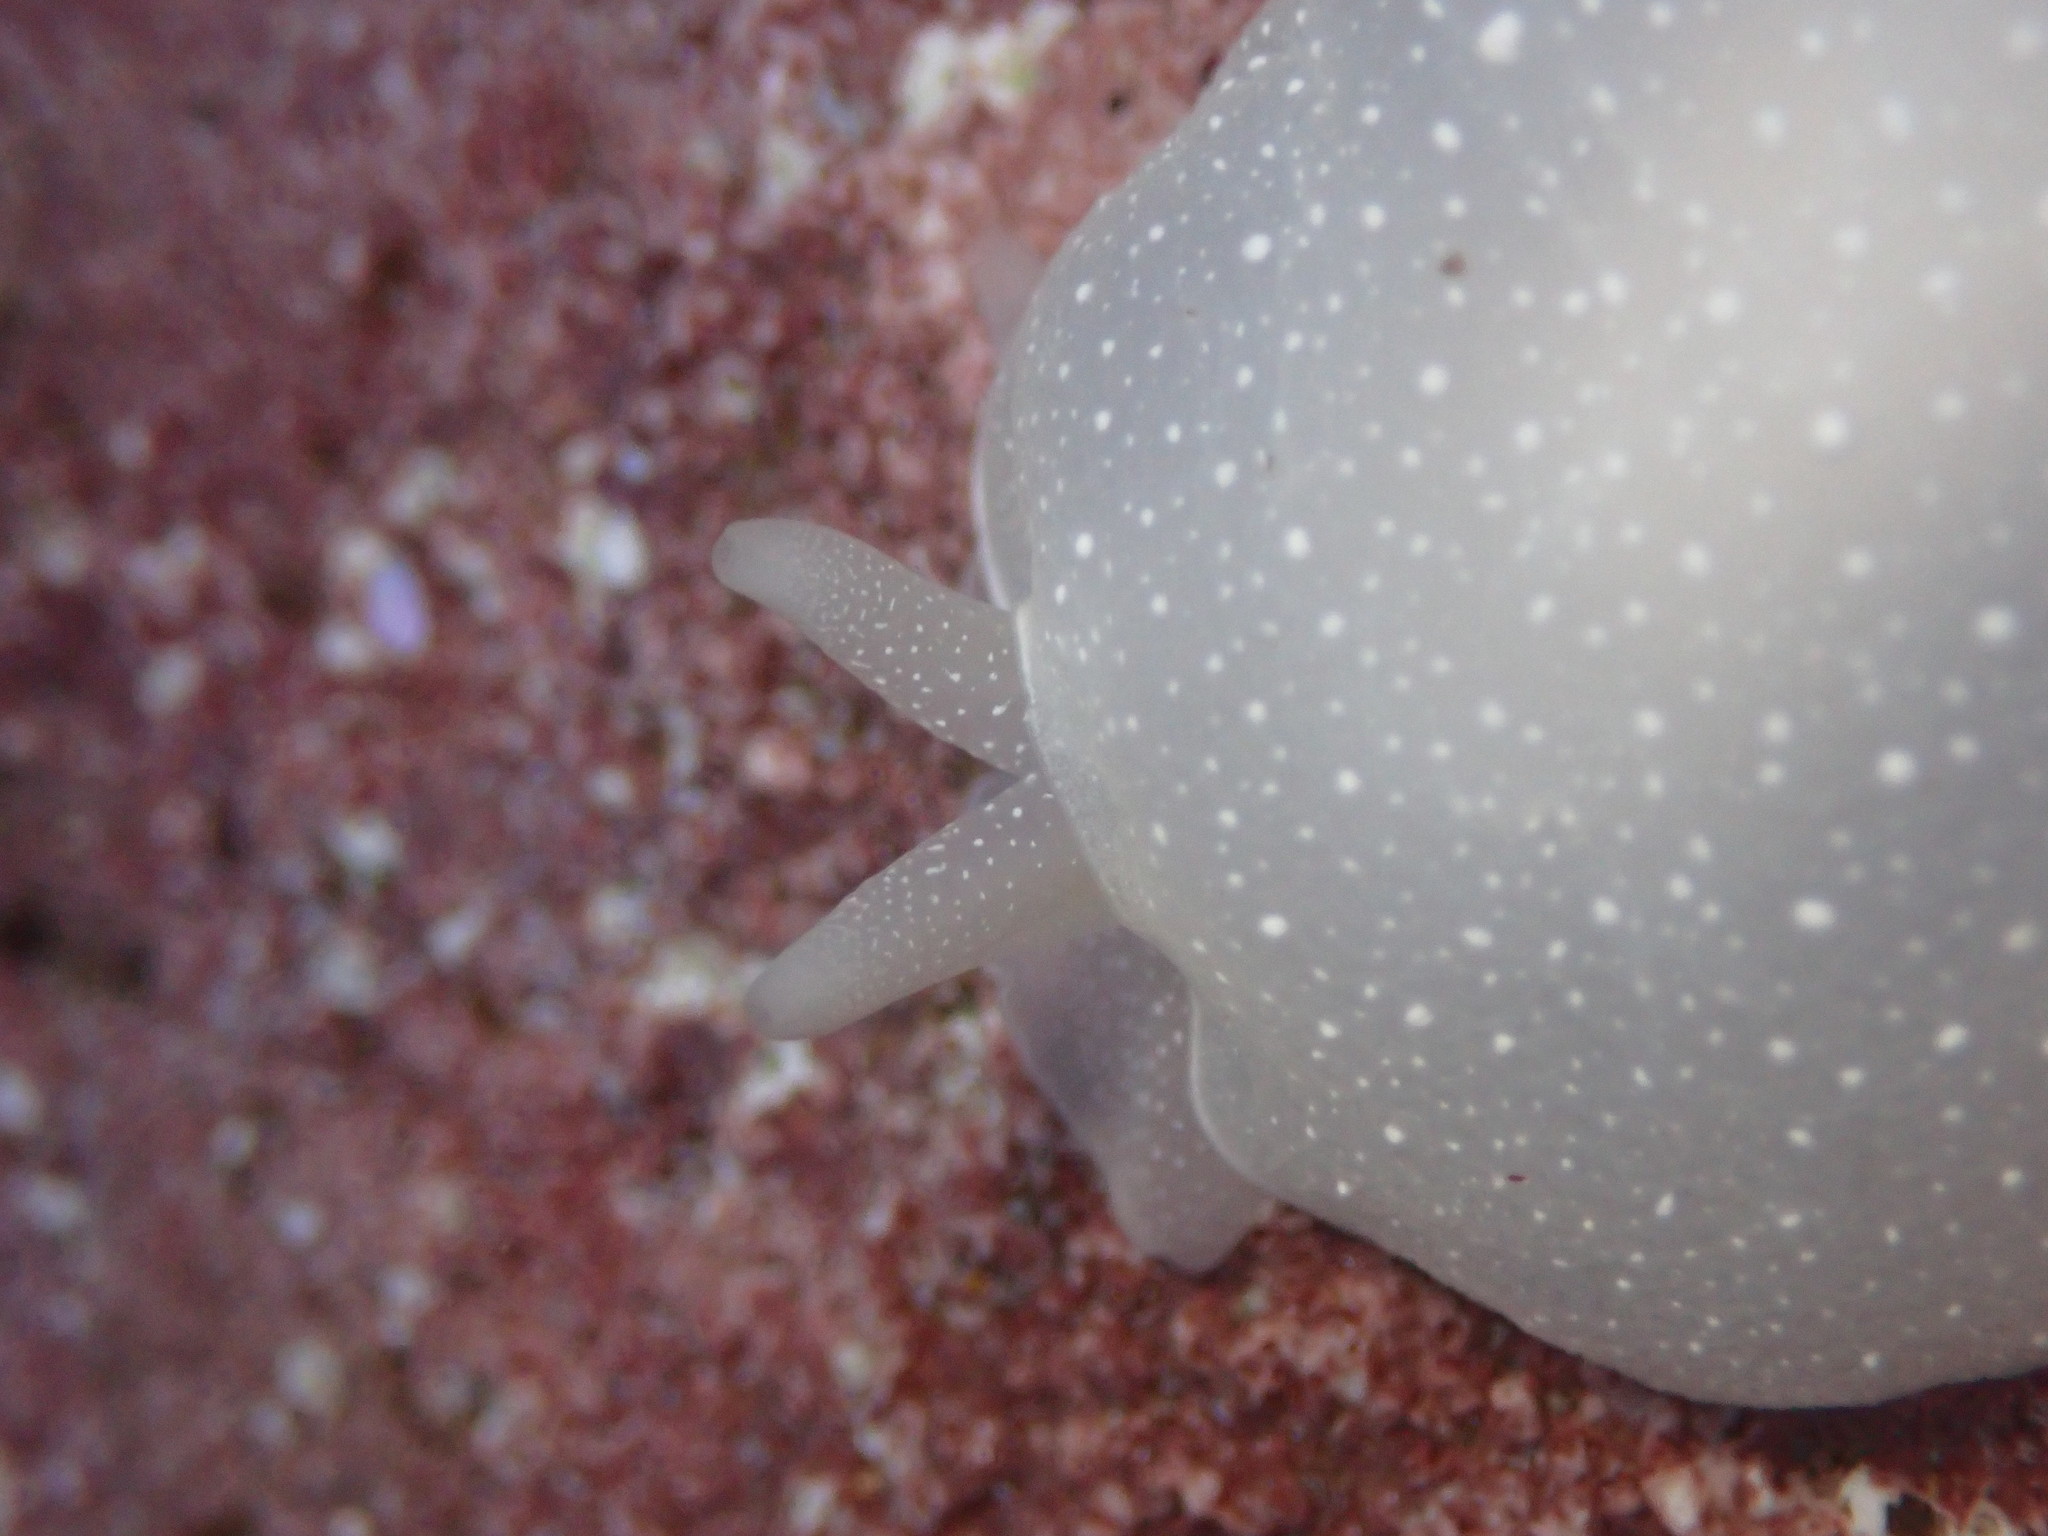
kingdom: Animalia
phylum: Mollusca
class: Gastropoda
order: Pleurobranchida
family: Pleurobranchidae
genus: Boreoberthella
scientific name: Boreoberthella
